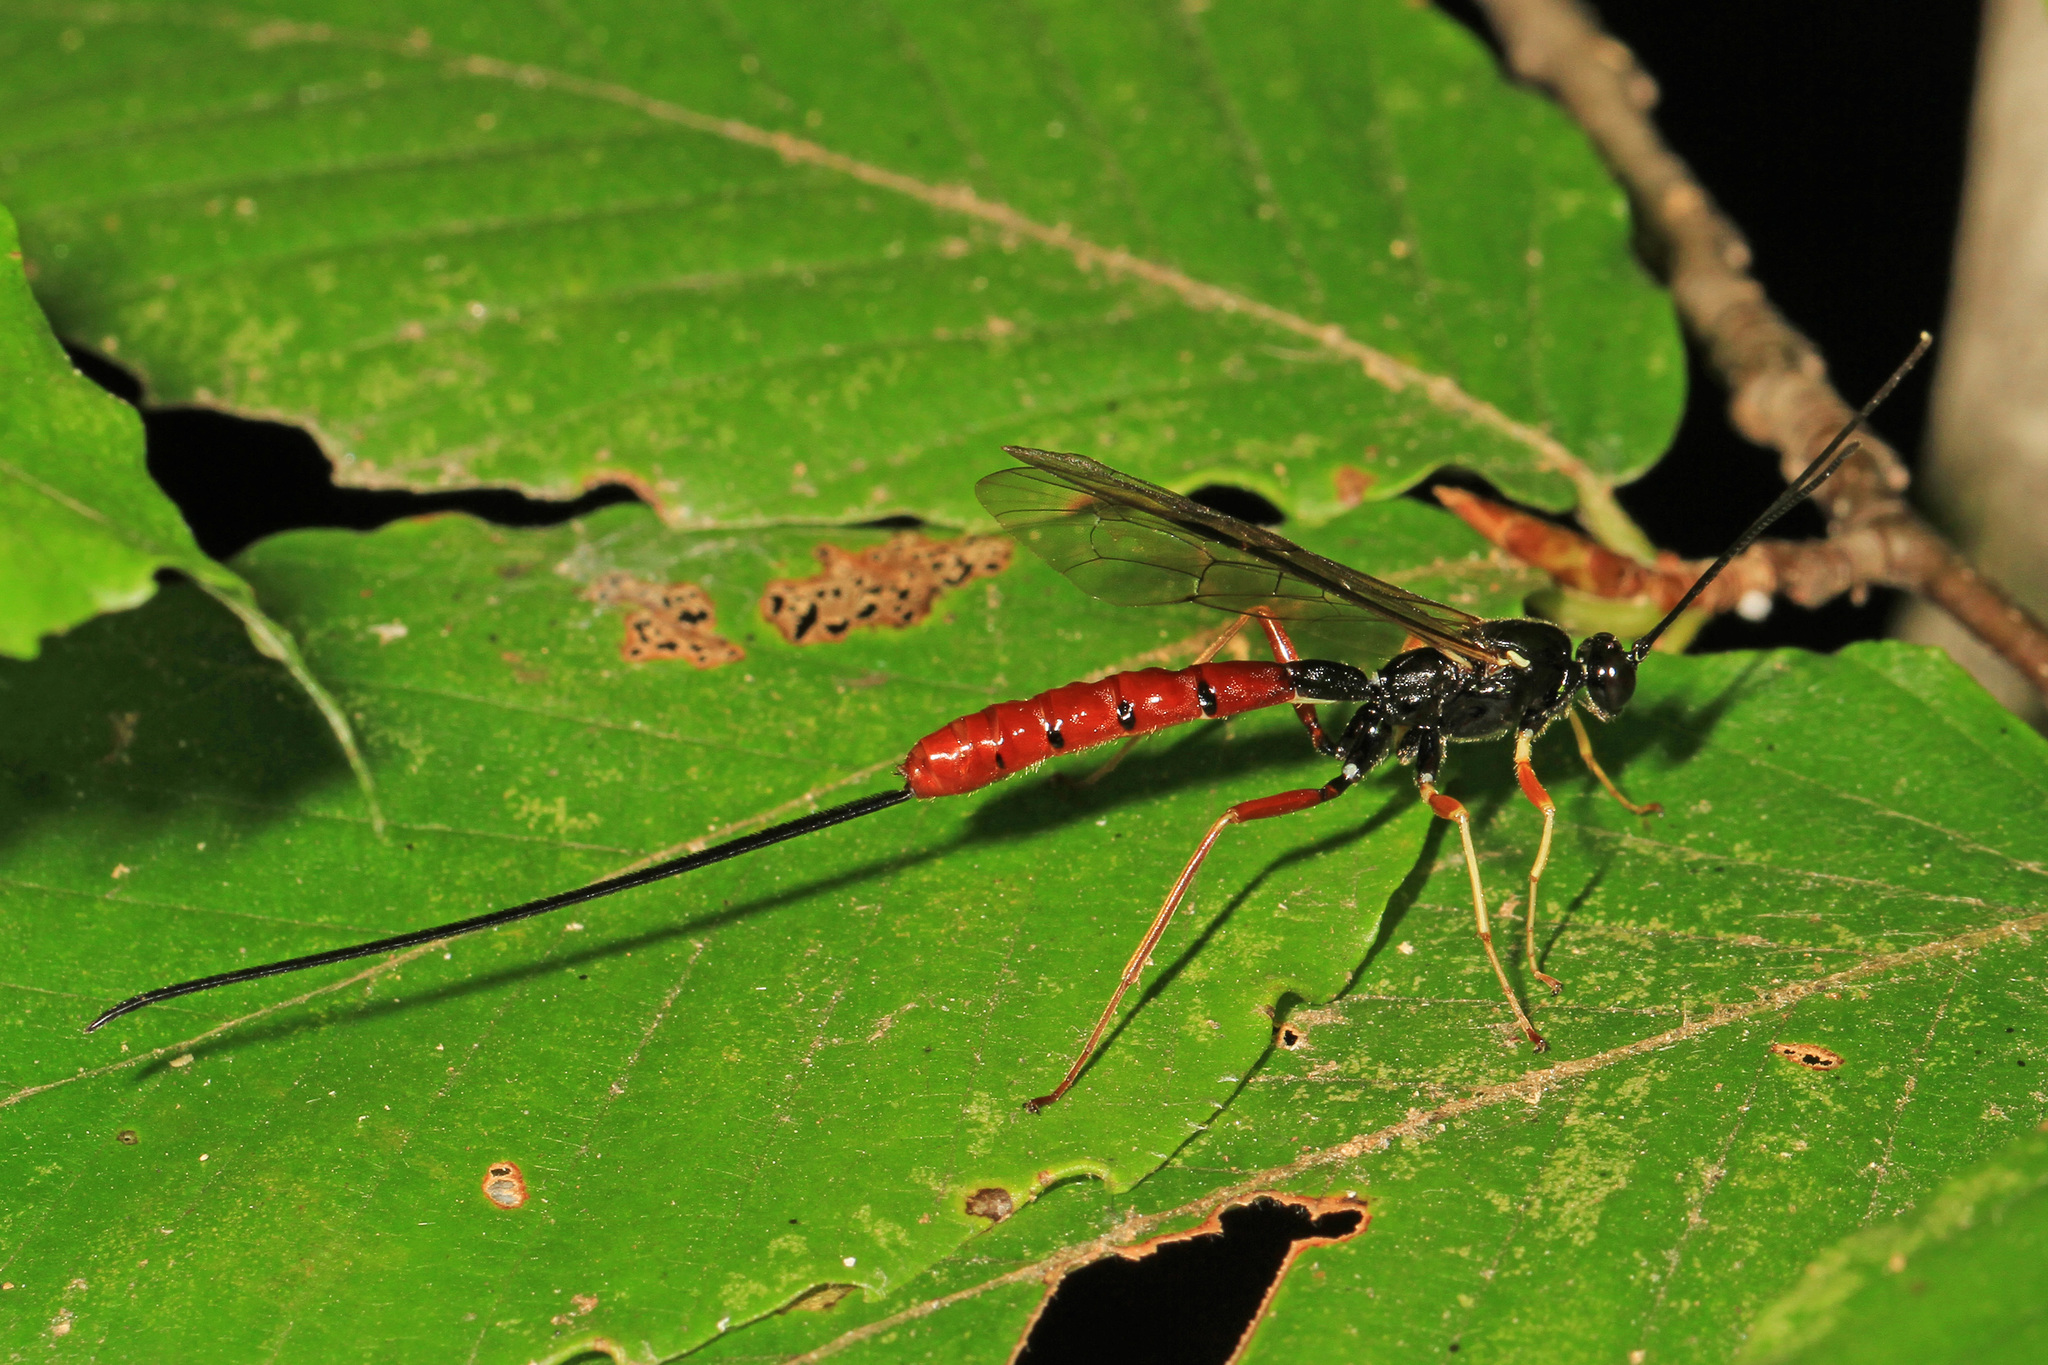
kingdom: Animalia
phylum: Arthropoda
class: Insecta
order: Hymenoptera
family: Ichneumonidae
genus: Dolichomitus
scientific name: Dolichomitus irritator
